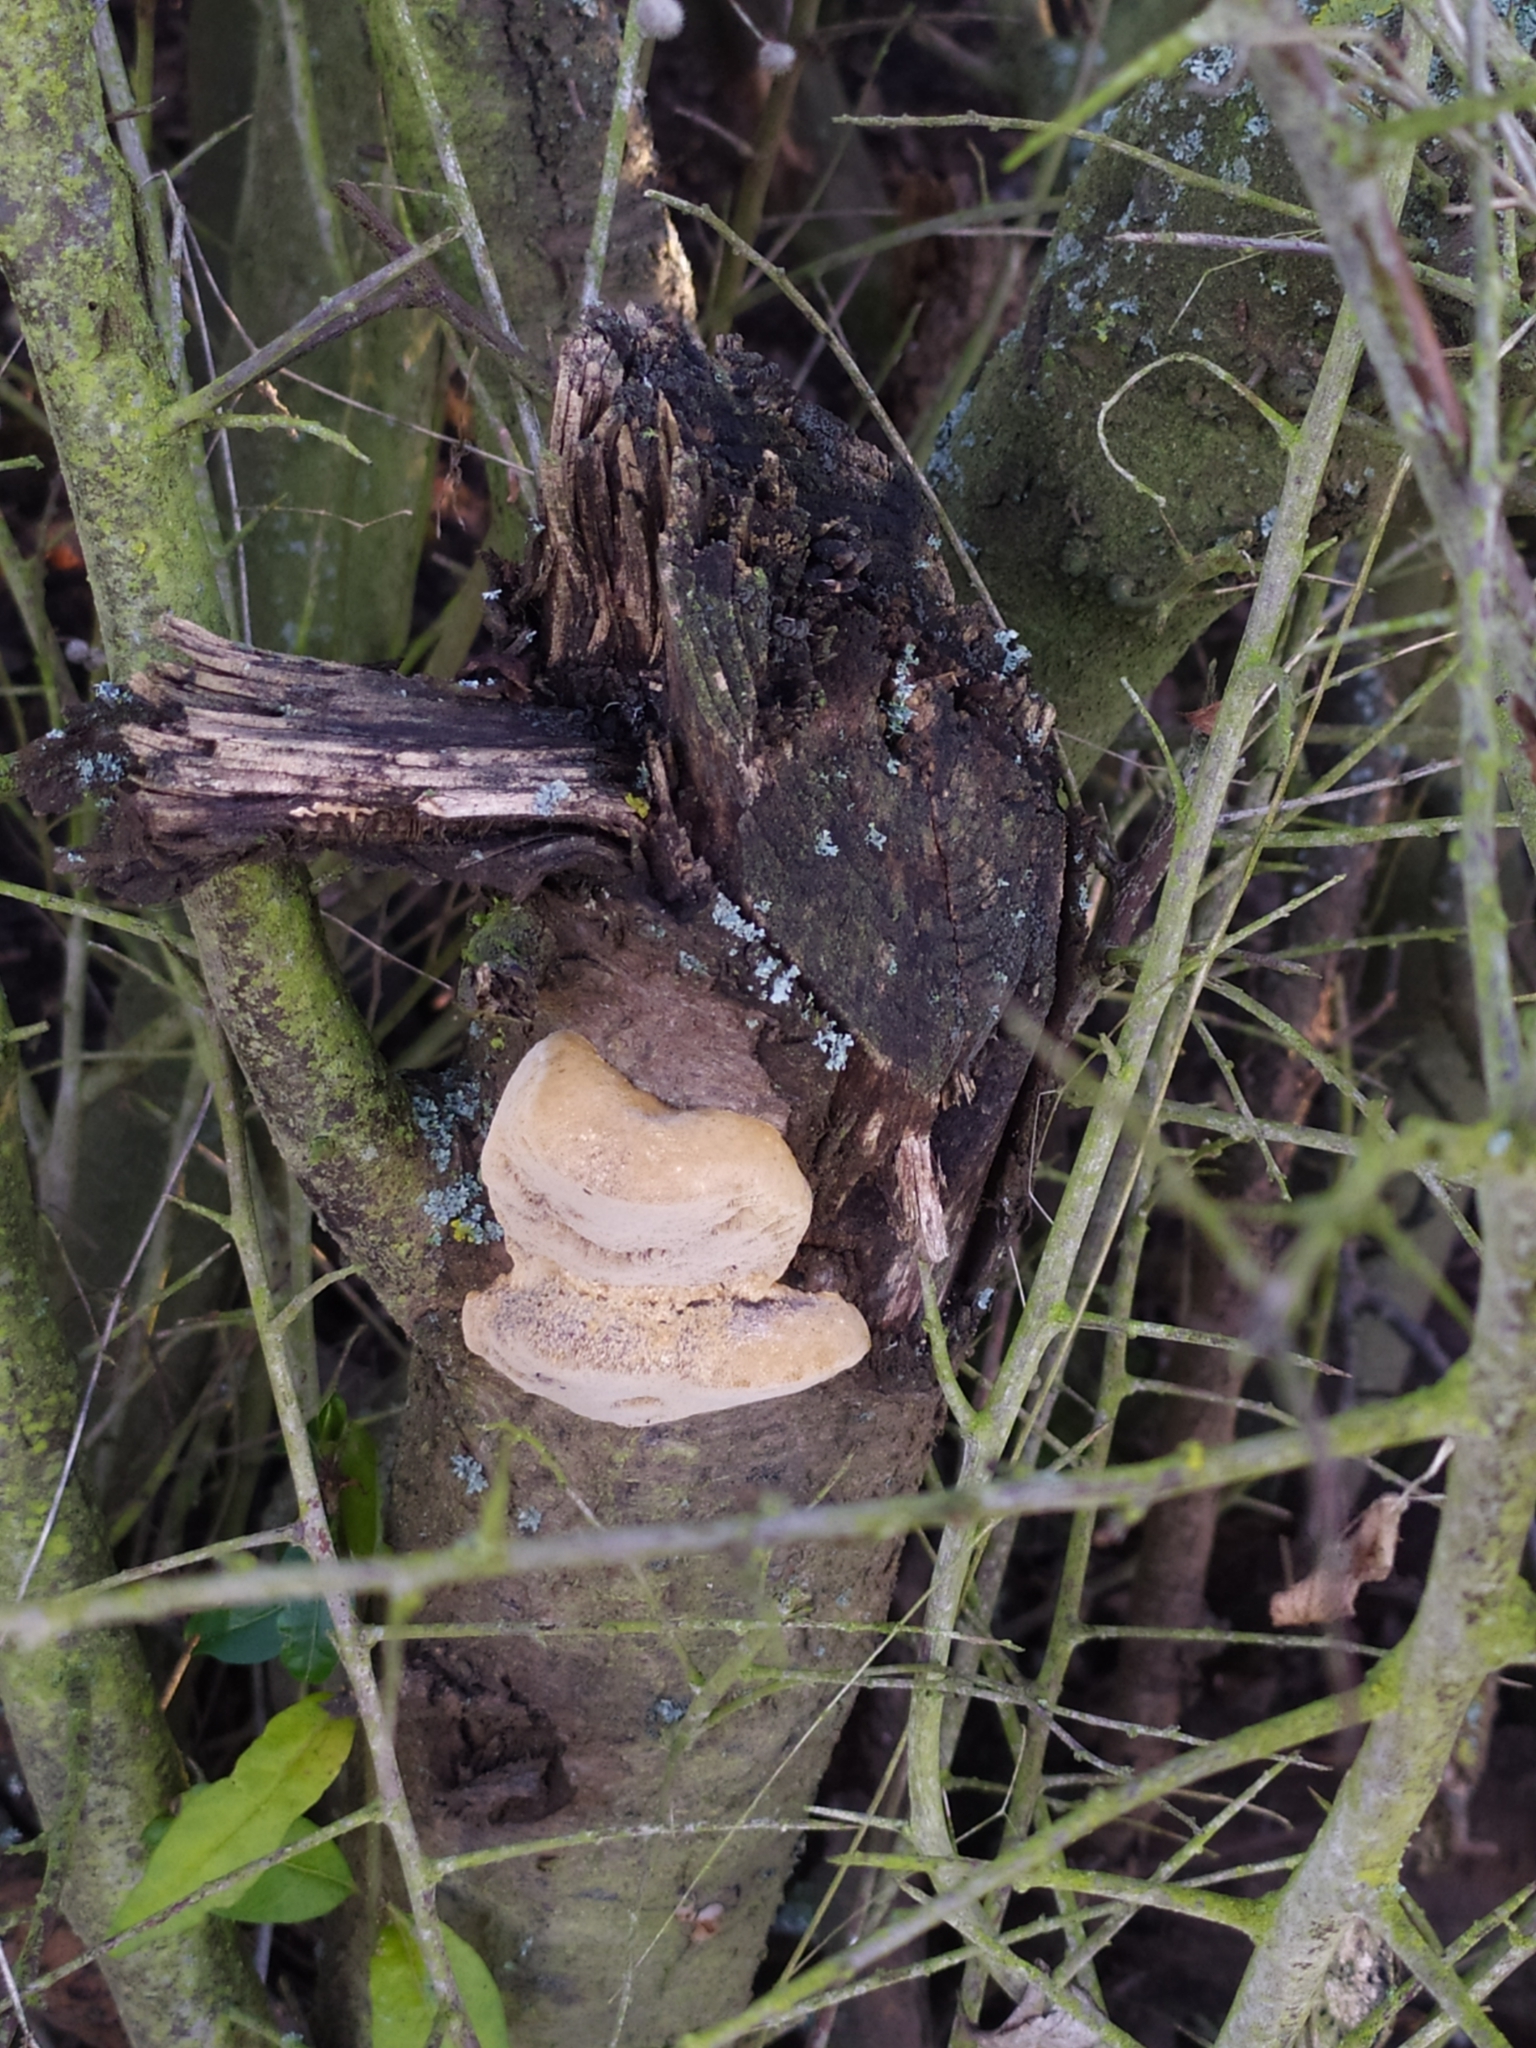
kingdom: Fungi
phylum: Basidiomycota
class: Agaricomycetes
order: Polyporales
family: Phanerochaetaceae
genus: Hapalopilus
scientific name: Hapalopilus rutilans
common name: Tender nesting polypore
